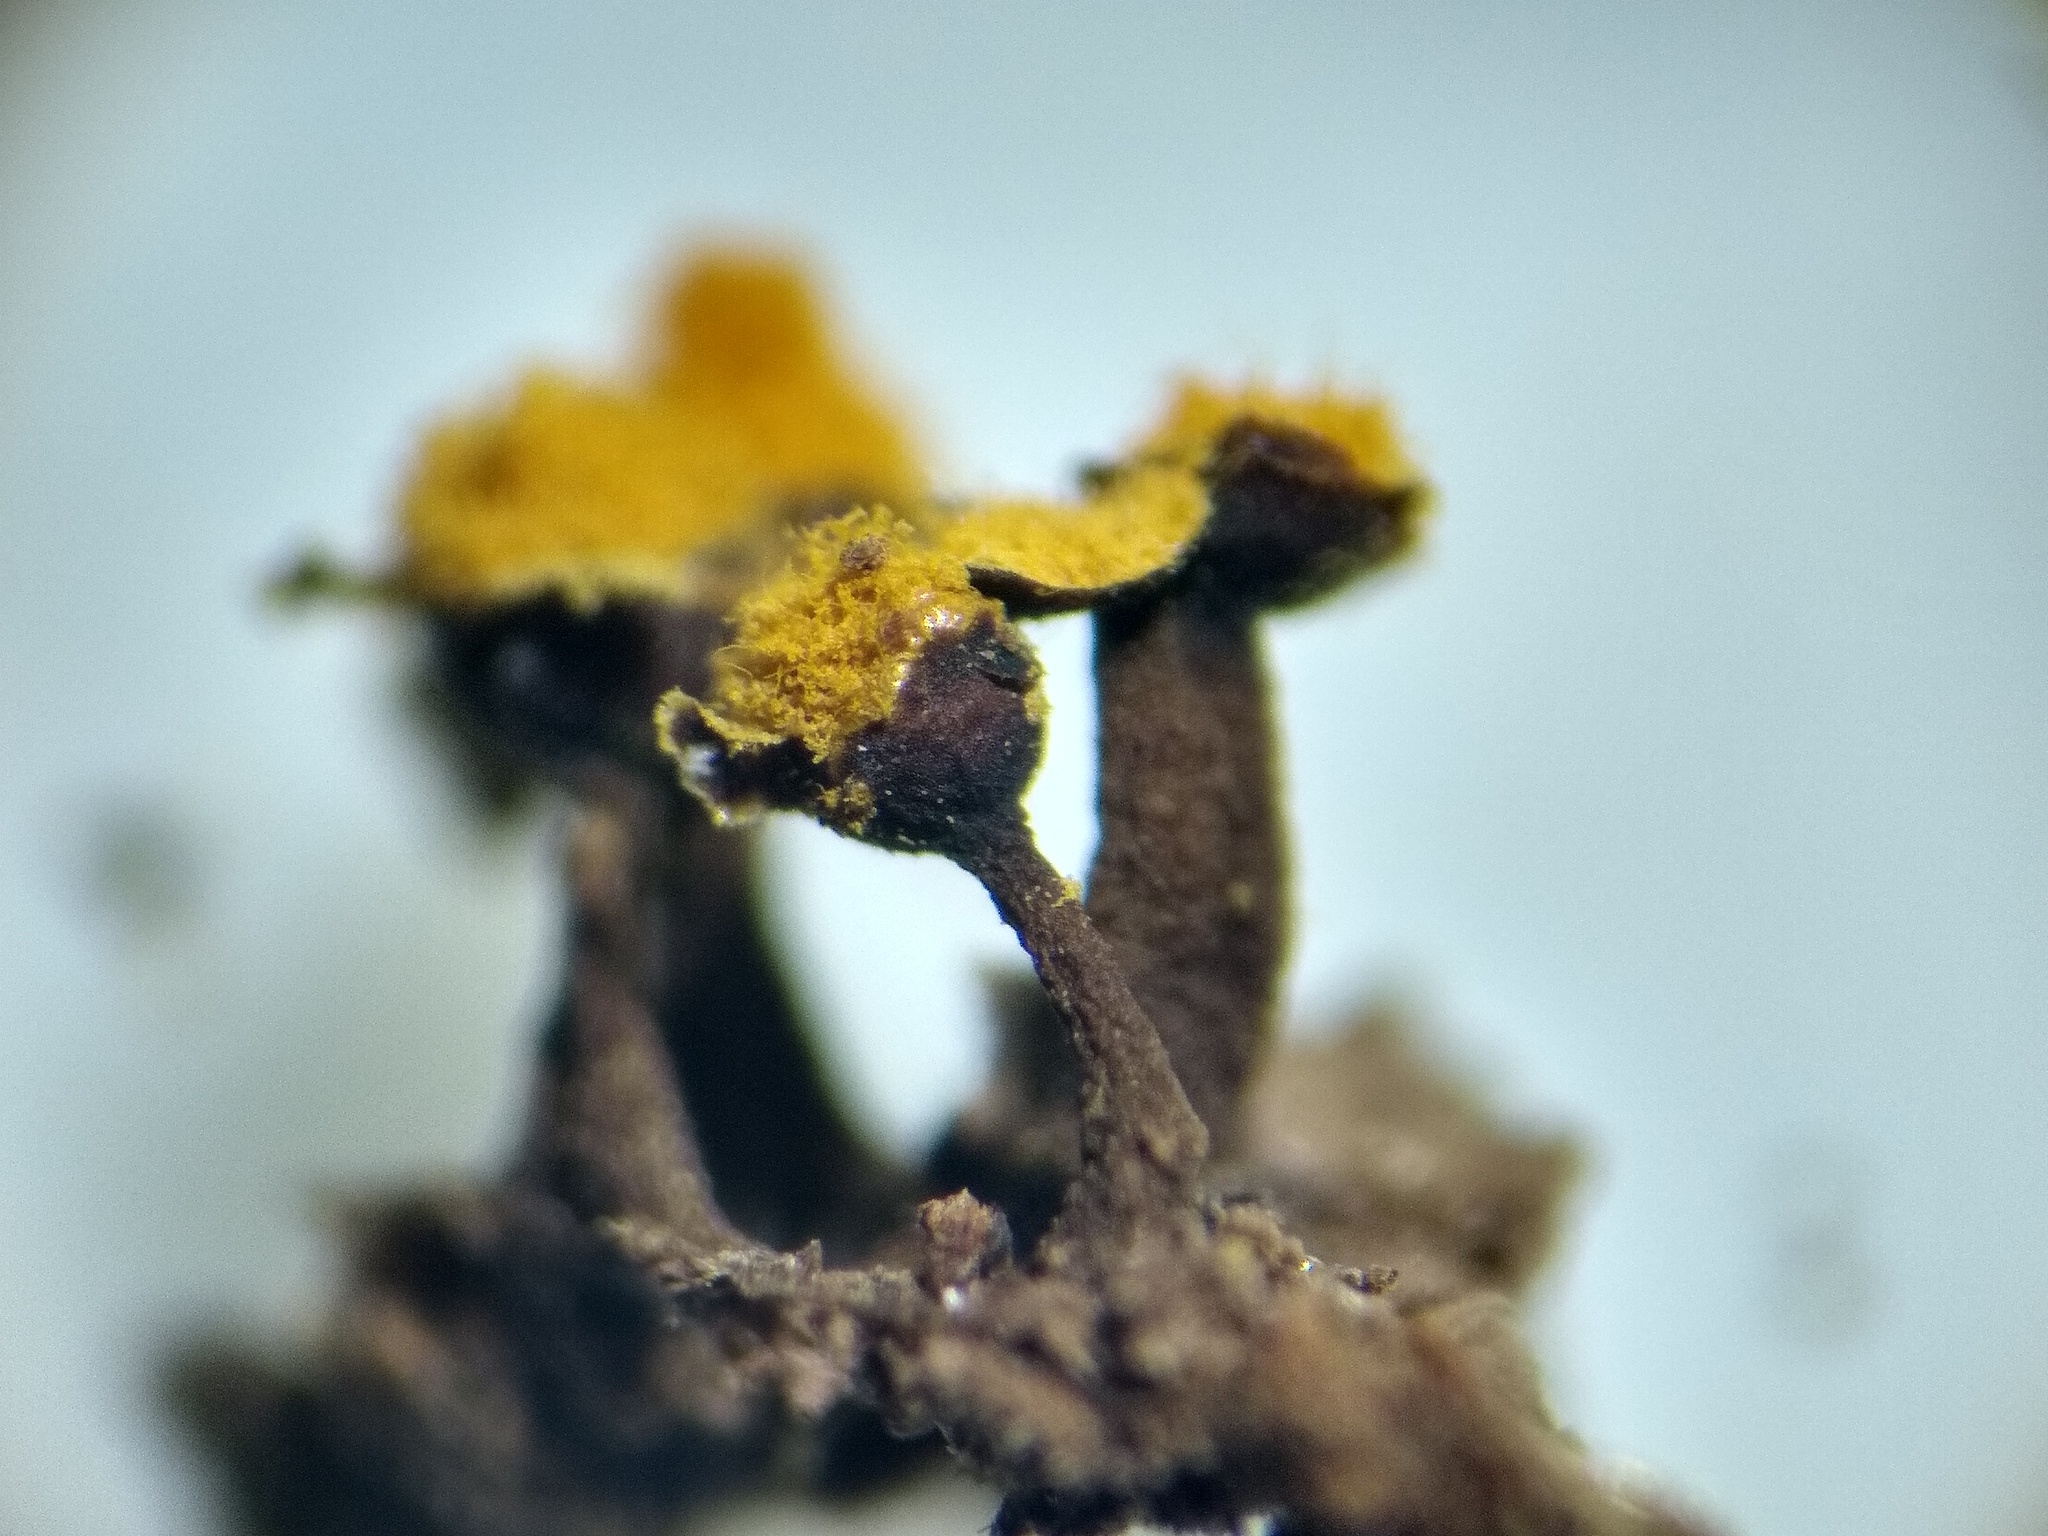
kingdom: Protozoa
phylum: Mycetozoa
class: Myxomycetes
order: Trichiales
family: Trichiaceae
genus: Trichia
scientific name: Trichia erecta
